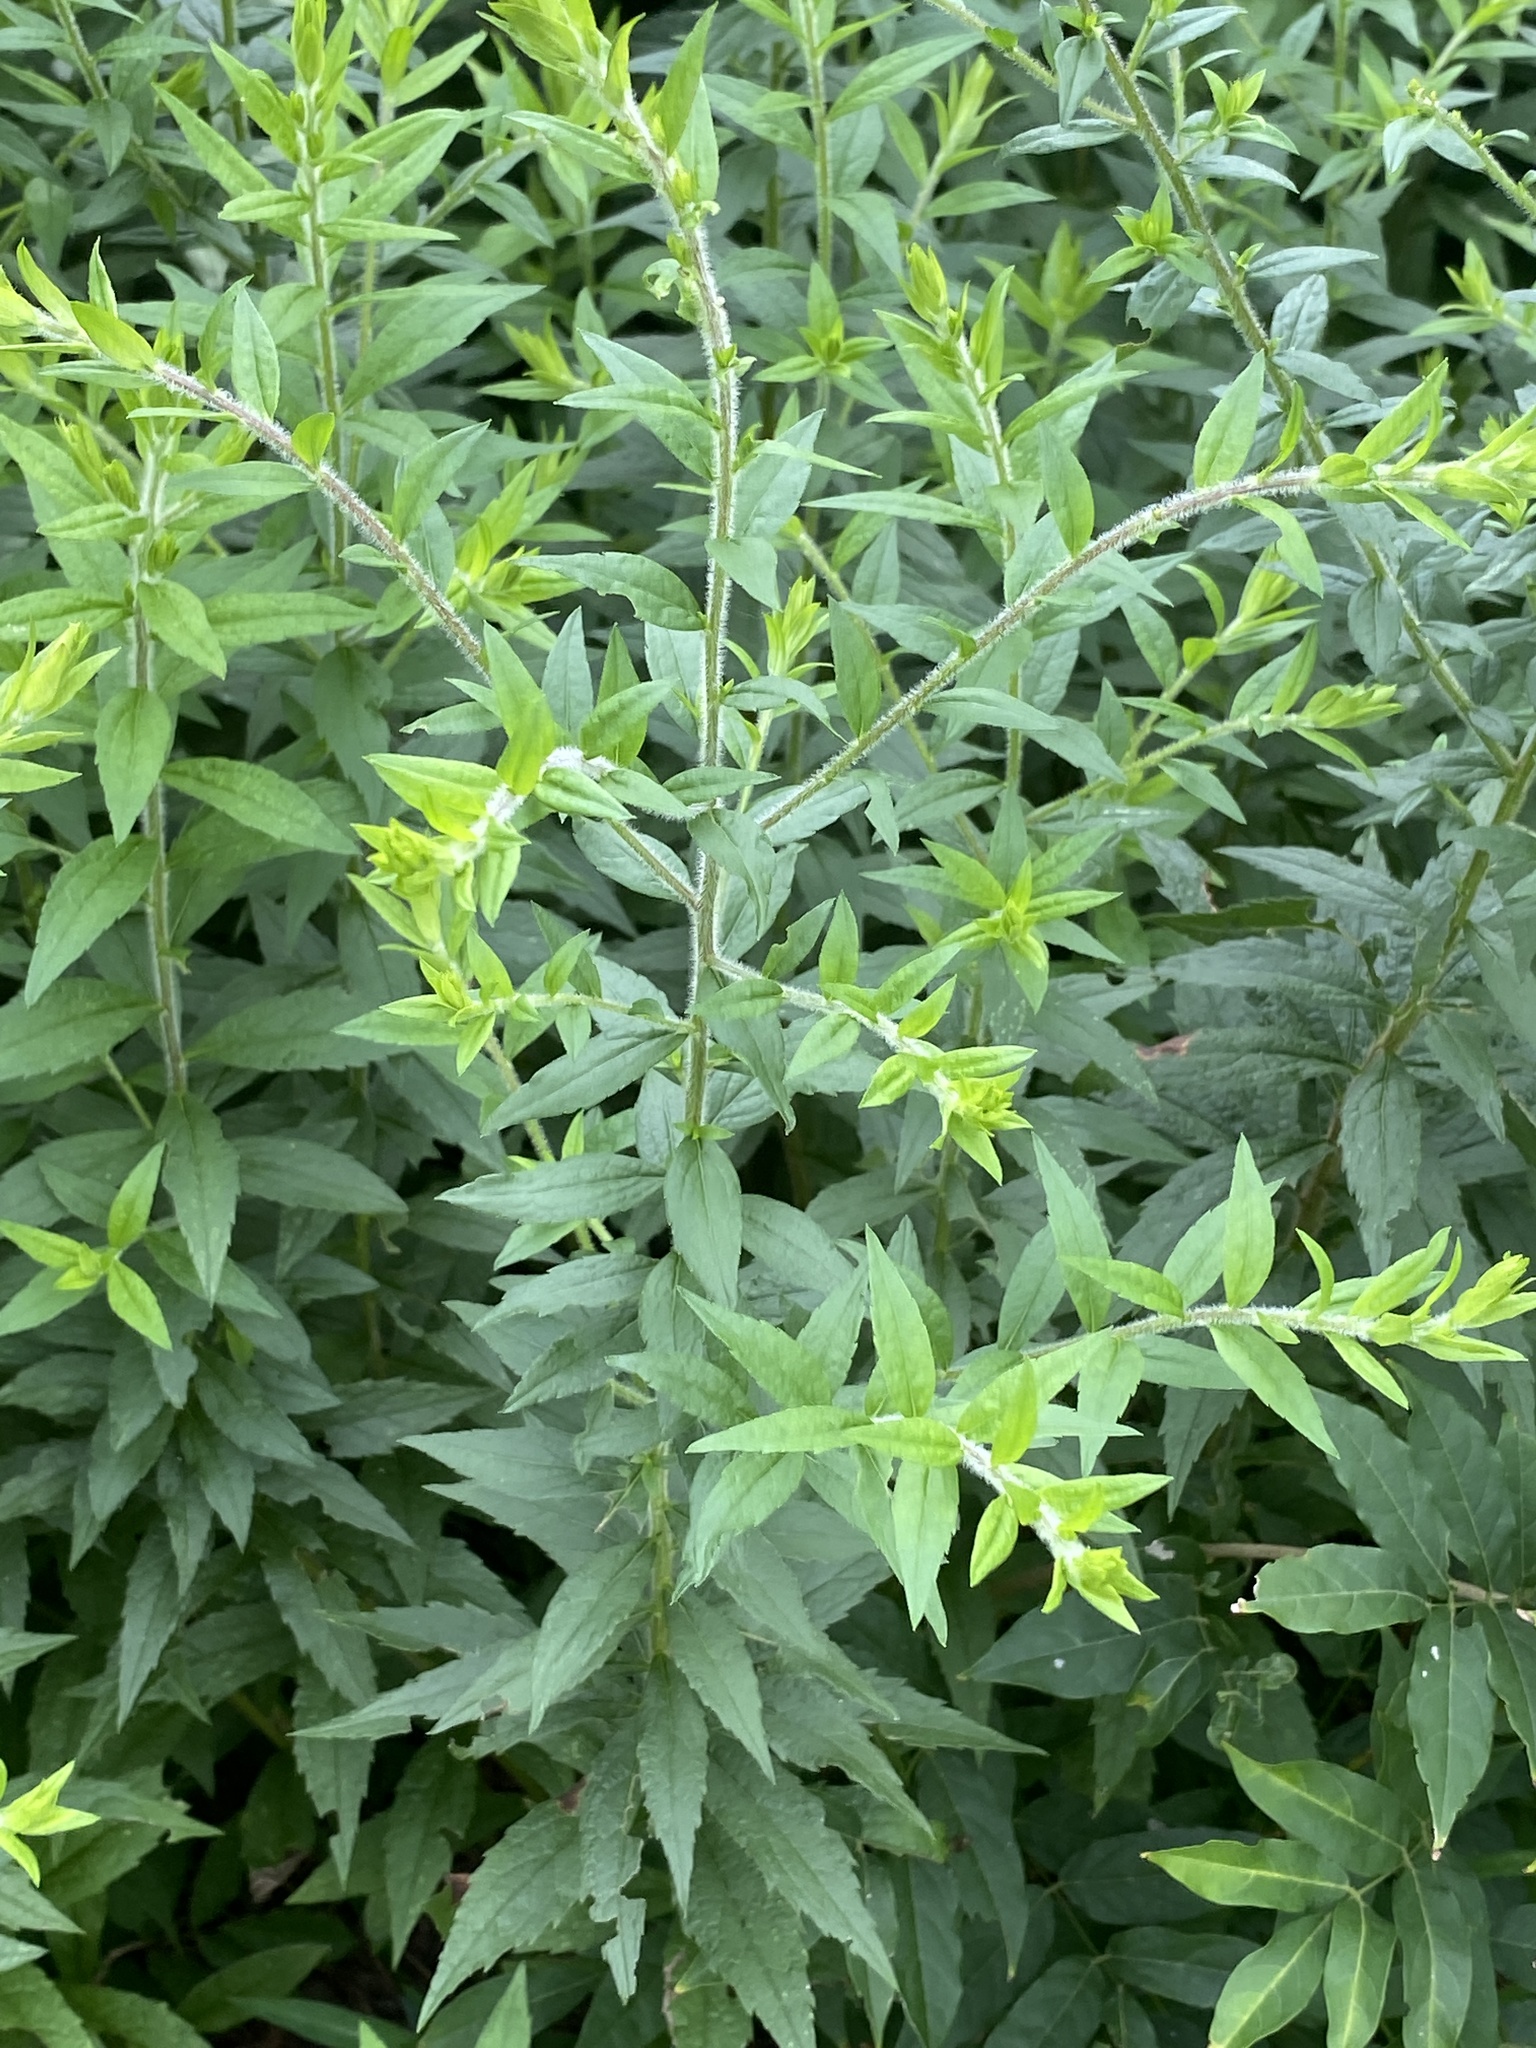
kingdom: Plantae
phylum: Tracheophyta
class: Magnoliopsida
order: Asterales
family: Asteraceae
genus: Solidago
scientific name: Solidago rugosa
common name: Rough-stemmed goldenrod
